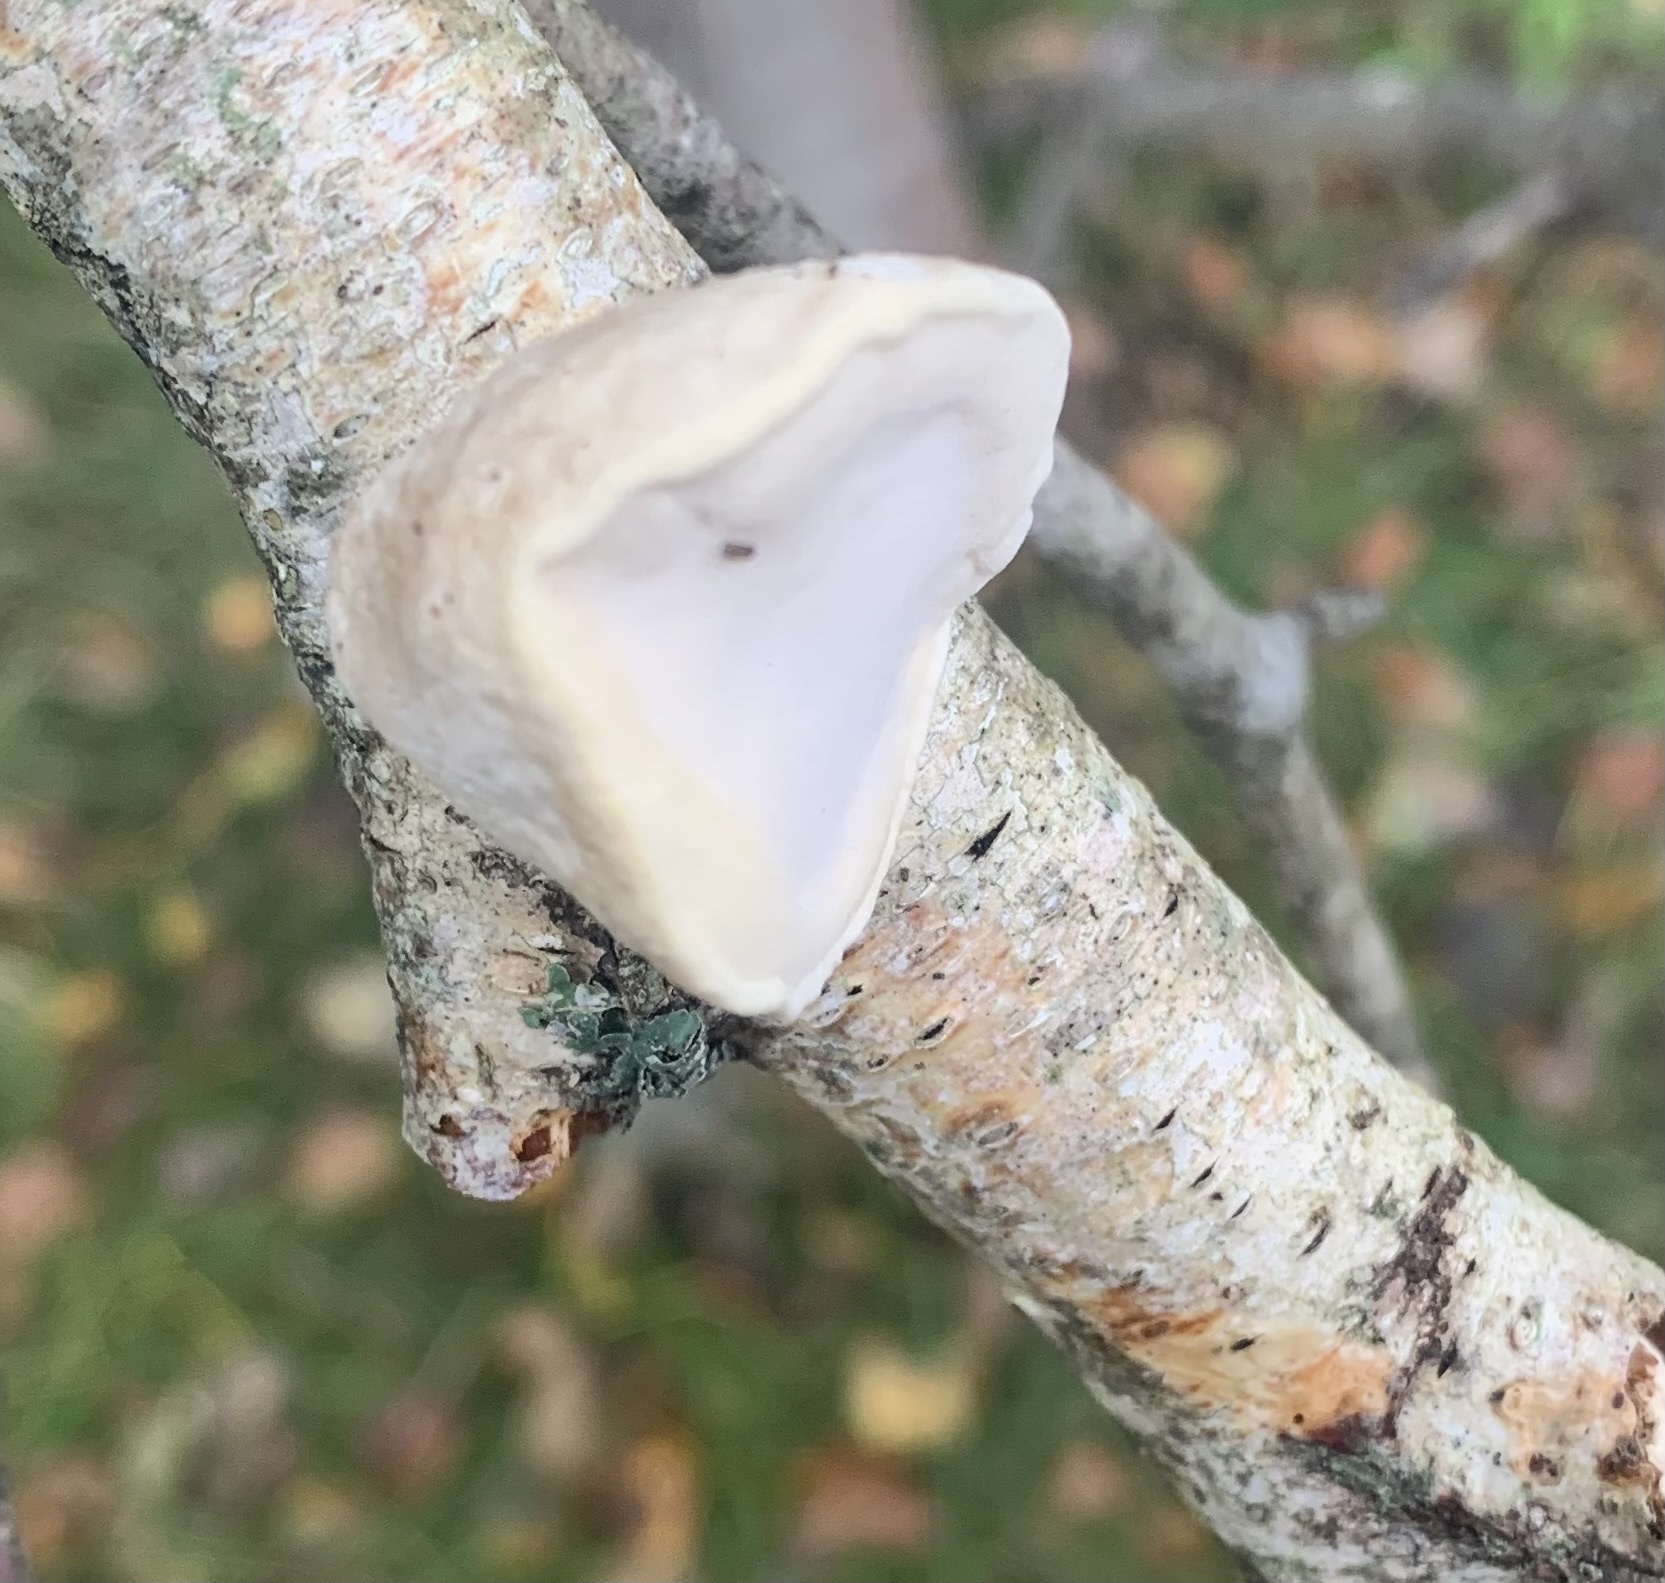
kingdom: Fungi
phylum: Basidiomycota
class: Agaricomycetes
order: Polyporales
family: Incrustoporiaceae
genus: Tyromyces
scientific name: Tyromyces chioneus
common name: White cheese polypore
